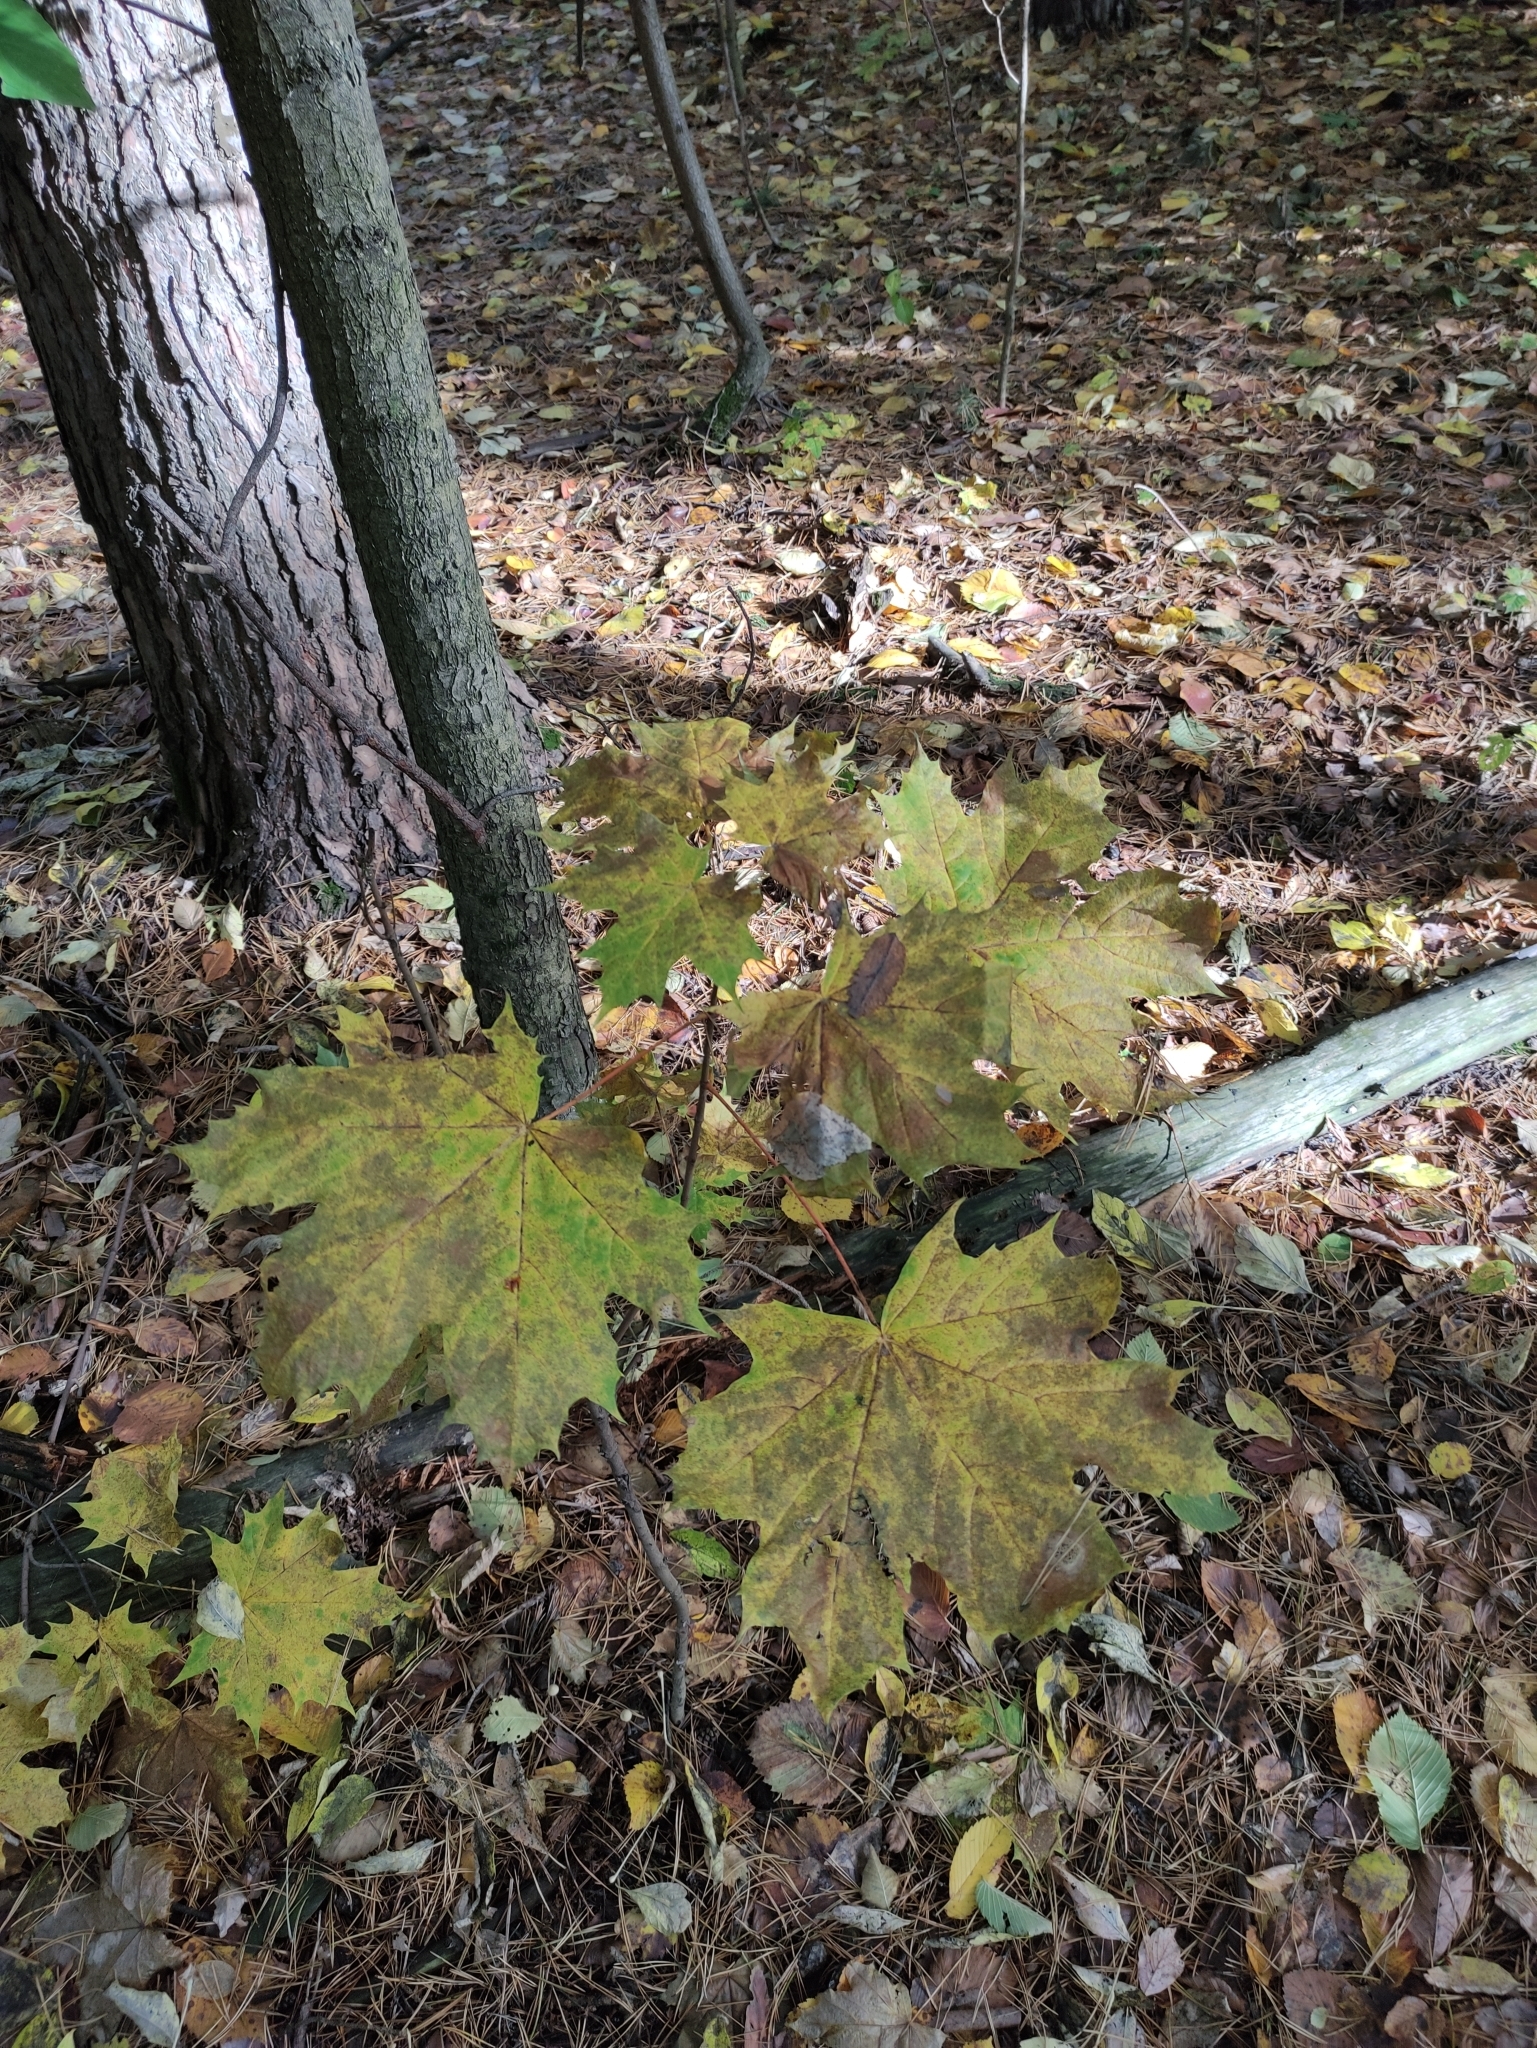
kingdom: Plantae
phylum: Tracheophyta
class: Magnoliopsida
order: Sapindales
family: Sapindaceae
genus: Acer
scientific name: Acer platanoides
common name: Norway maple
